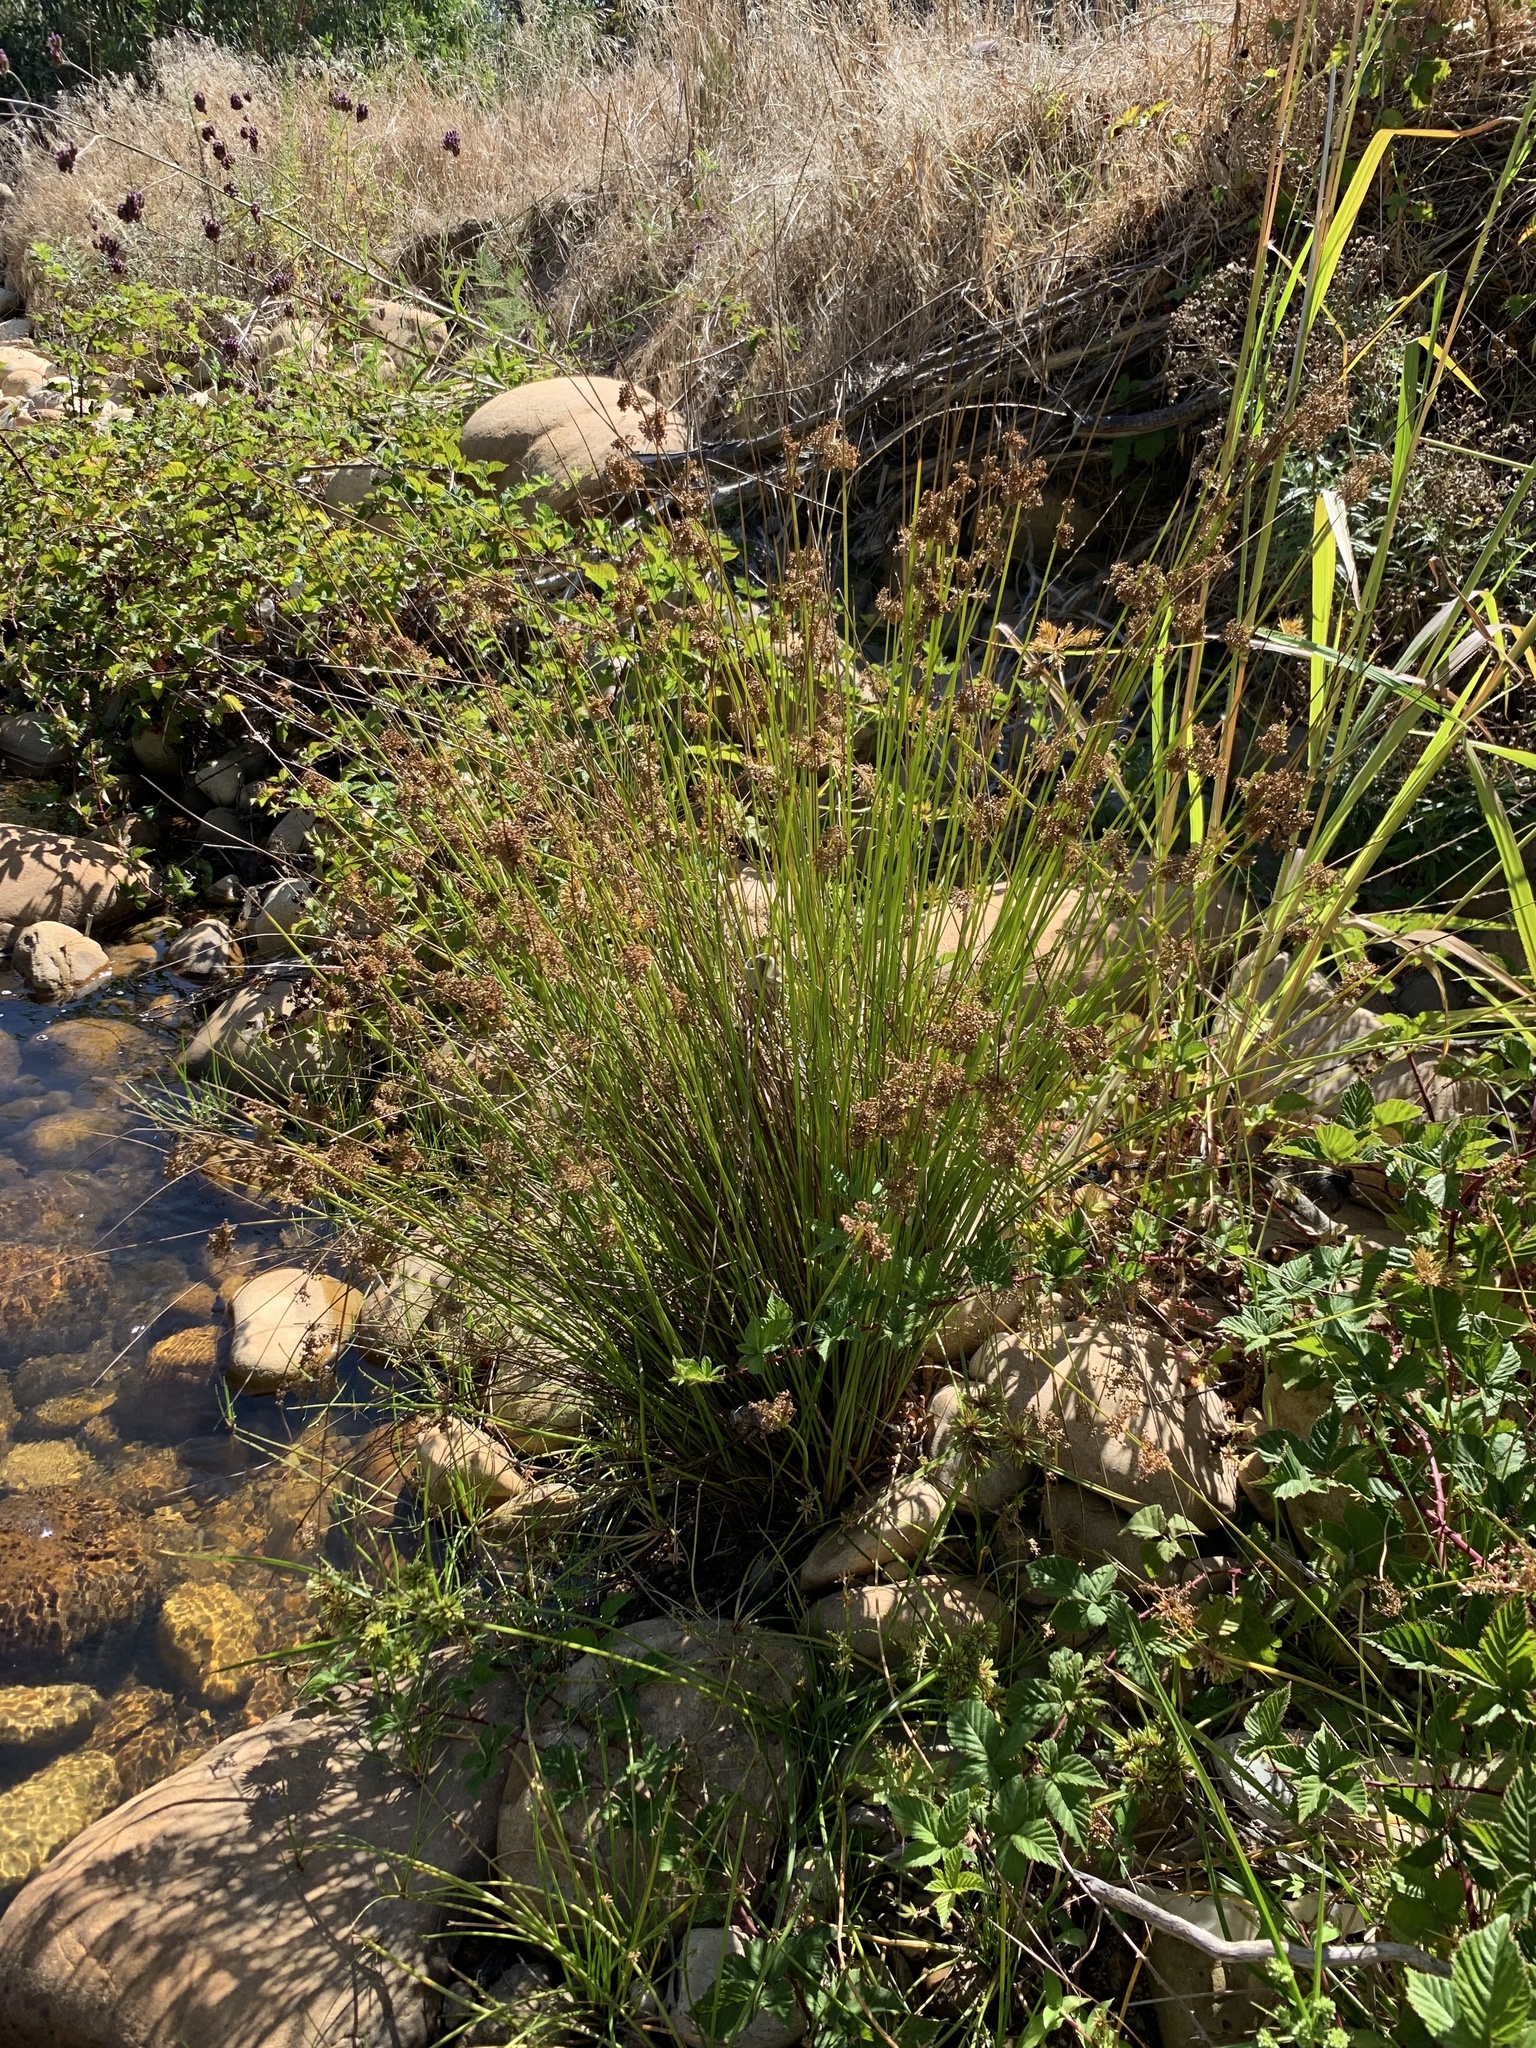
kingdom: Plantae
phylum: Tracheophyta
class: Liliopsida
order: Poales
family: Juncaceae
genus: Juncus
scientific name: Juncus effusus
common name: Soft rush
